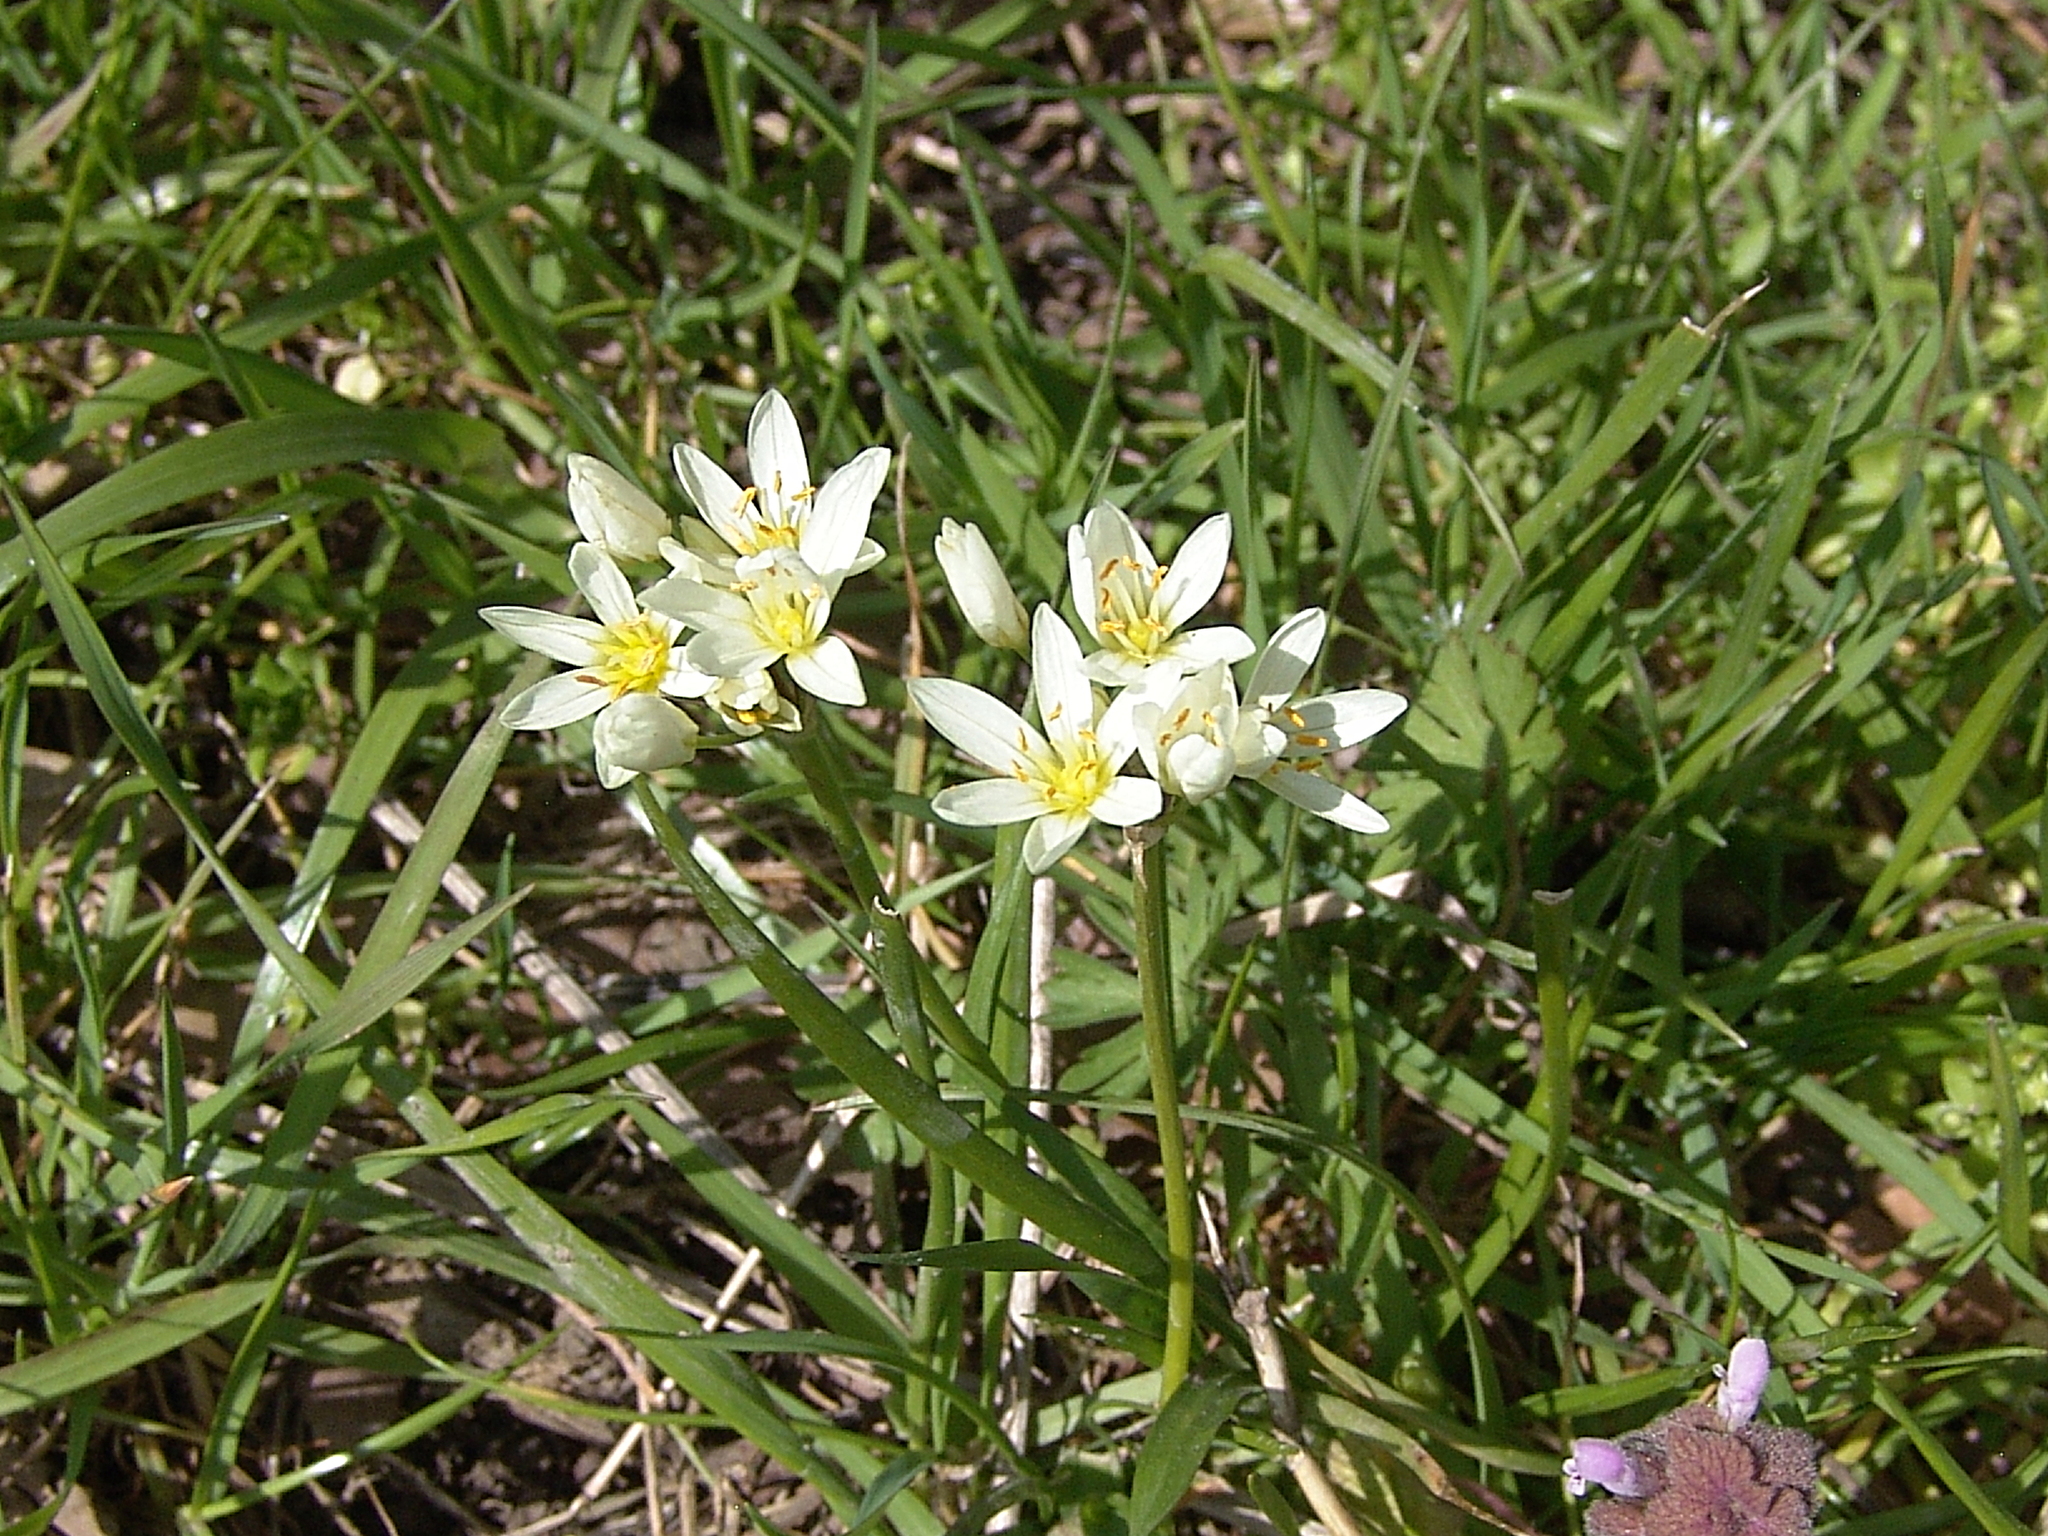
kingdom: Plantae
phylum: Tracheophyta
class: Liliopsida
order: Asparagales
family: Amaryllidaceae
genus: Nothoscordum
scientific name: Nothoscordum bivalve
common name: Crow-poison
